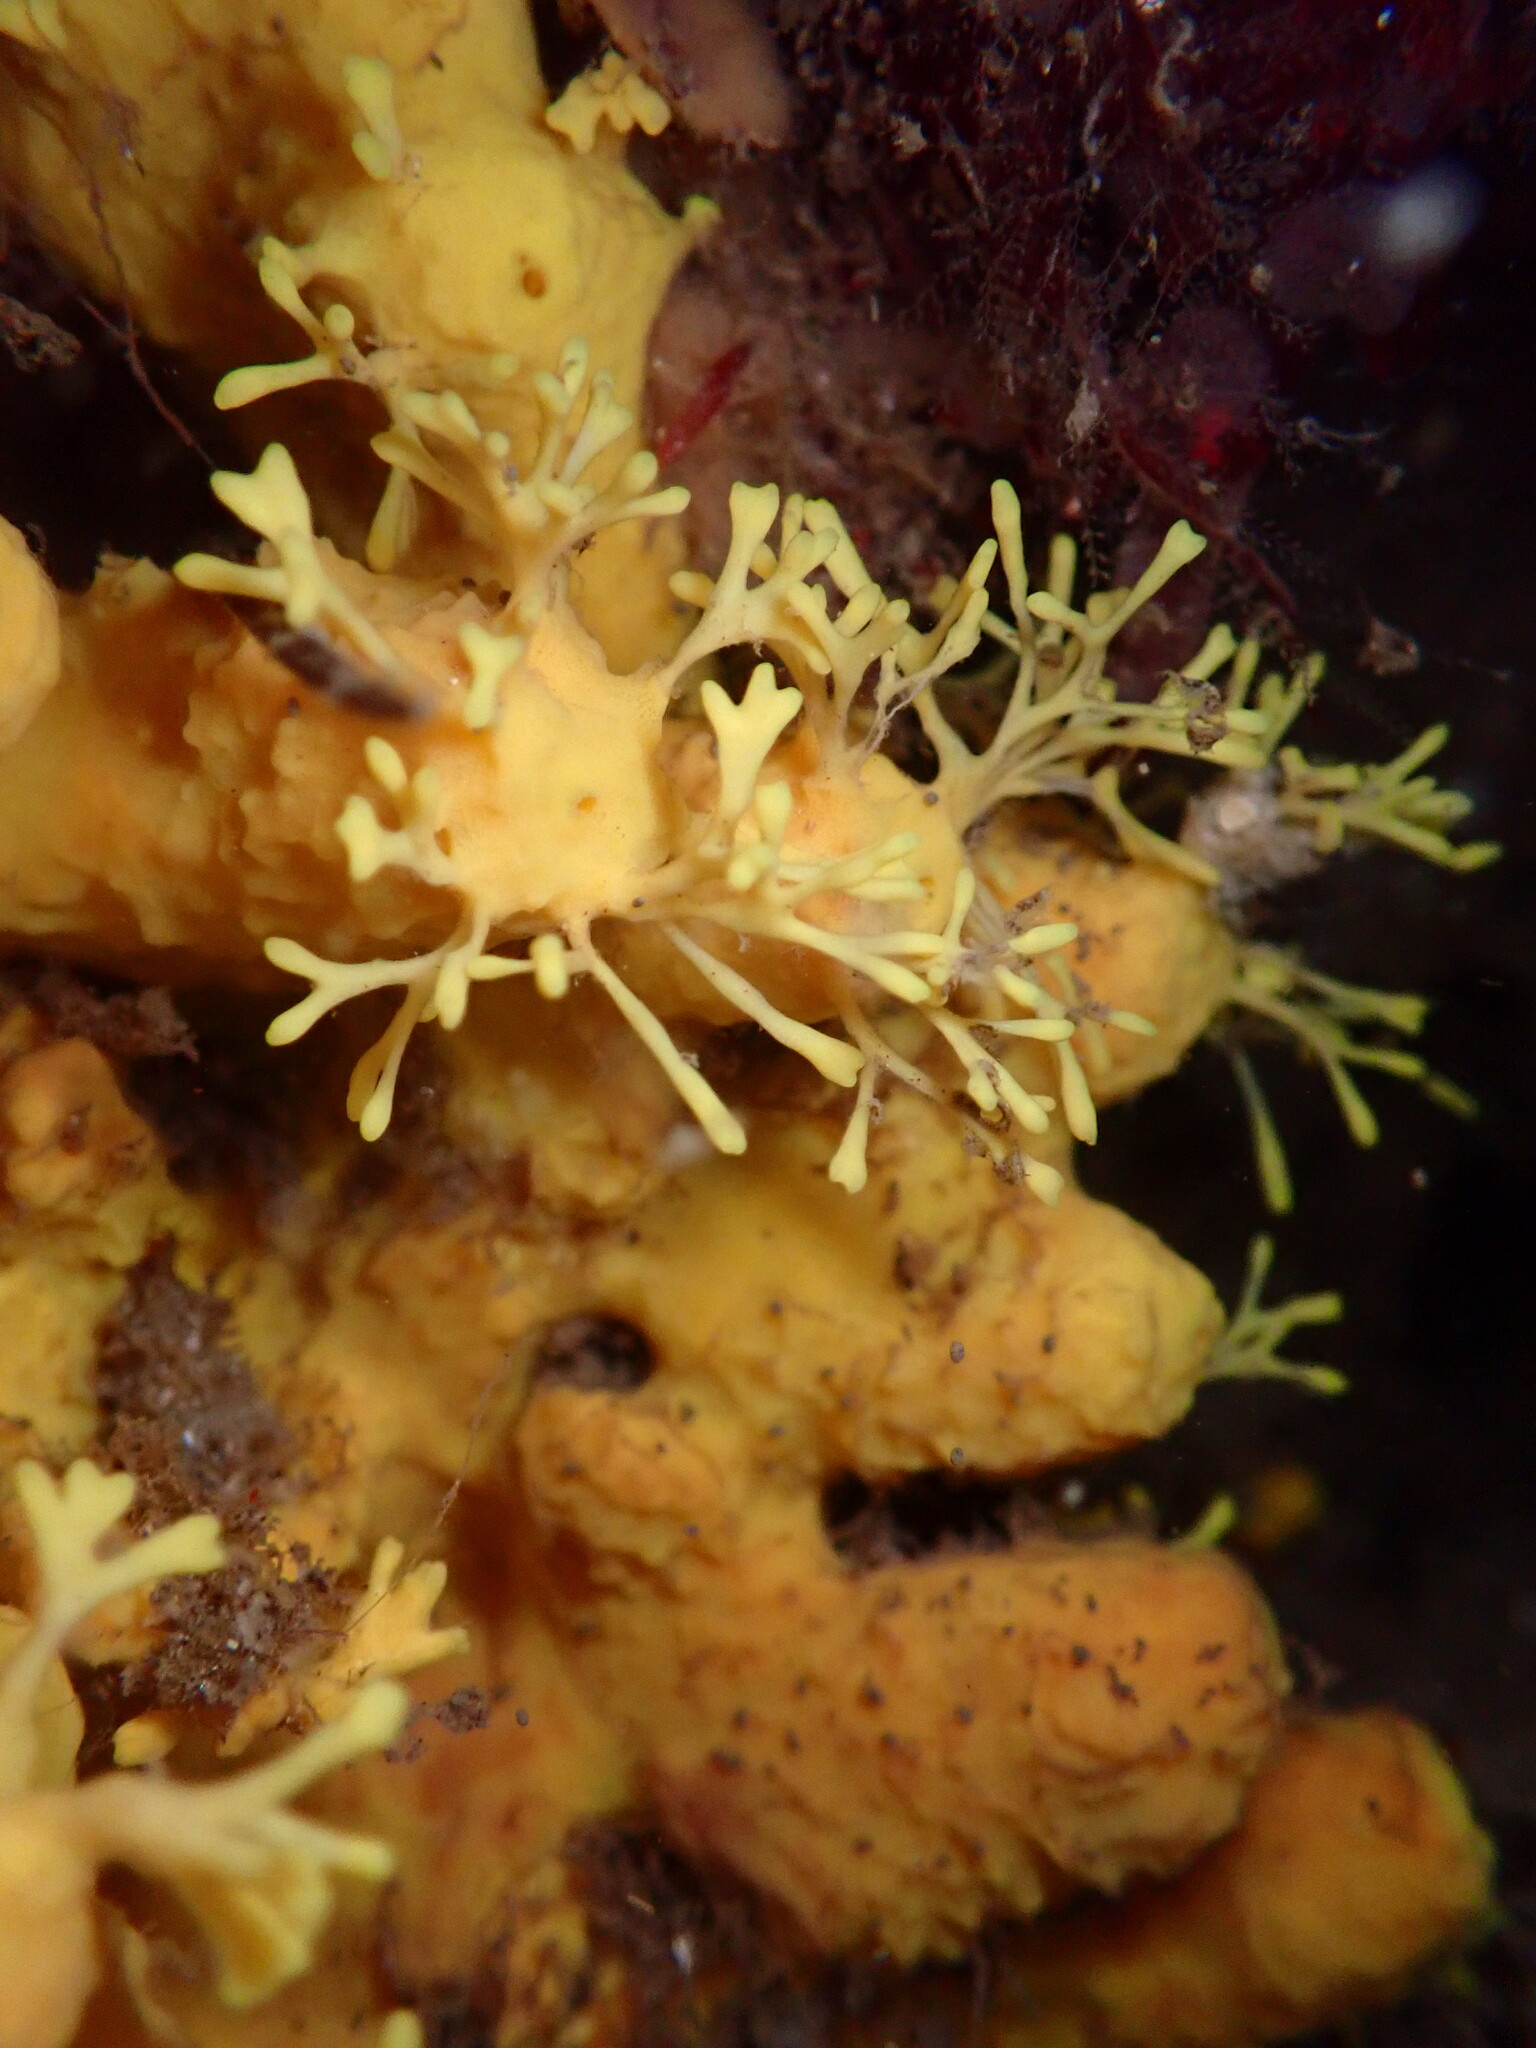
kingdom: Animalia
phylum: Porifera
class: Demospongiae
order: Verongiida
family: Aplysinidae
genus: Aiolochroia
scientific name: Aiolochroia thiona
